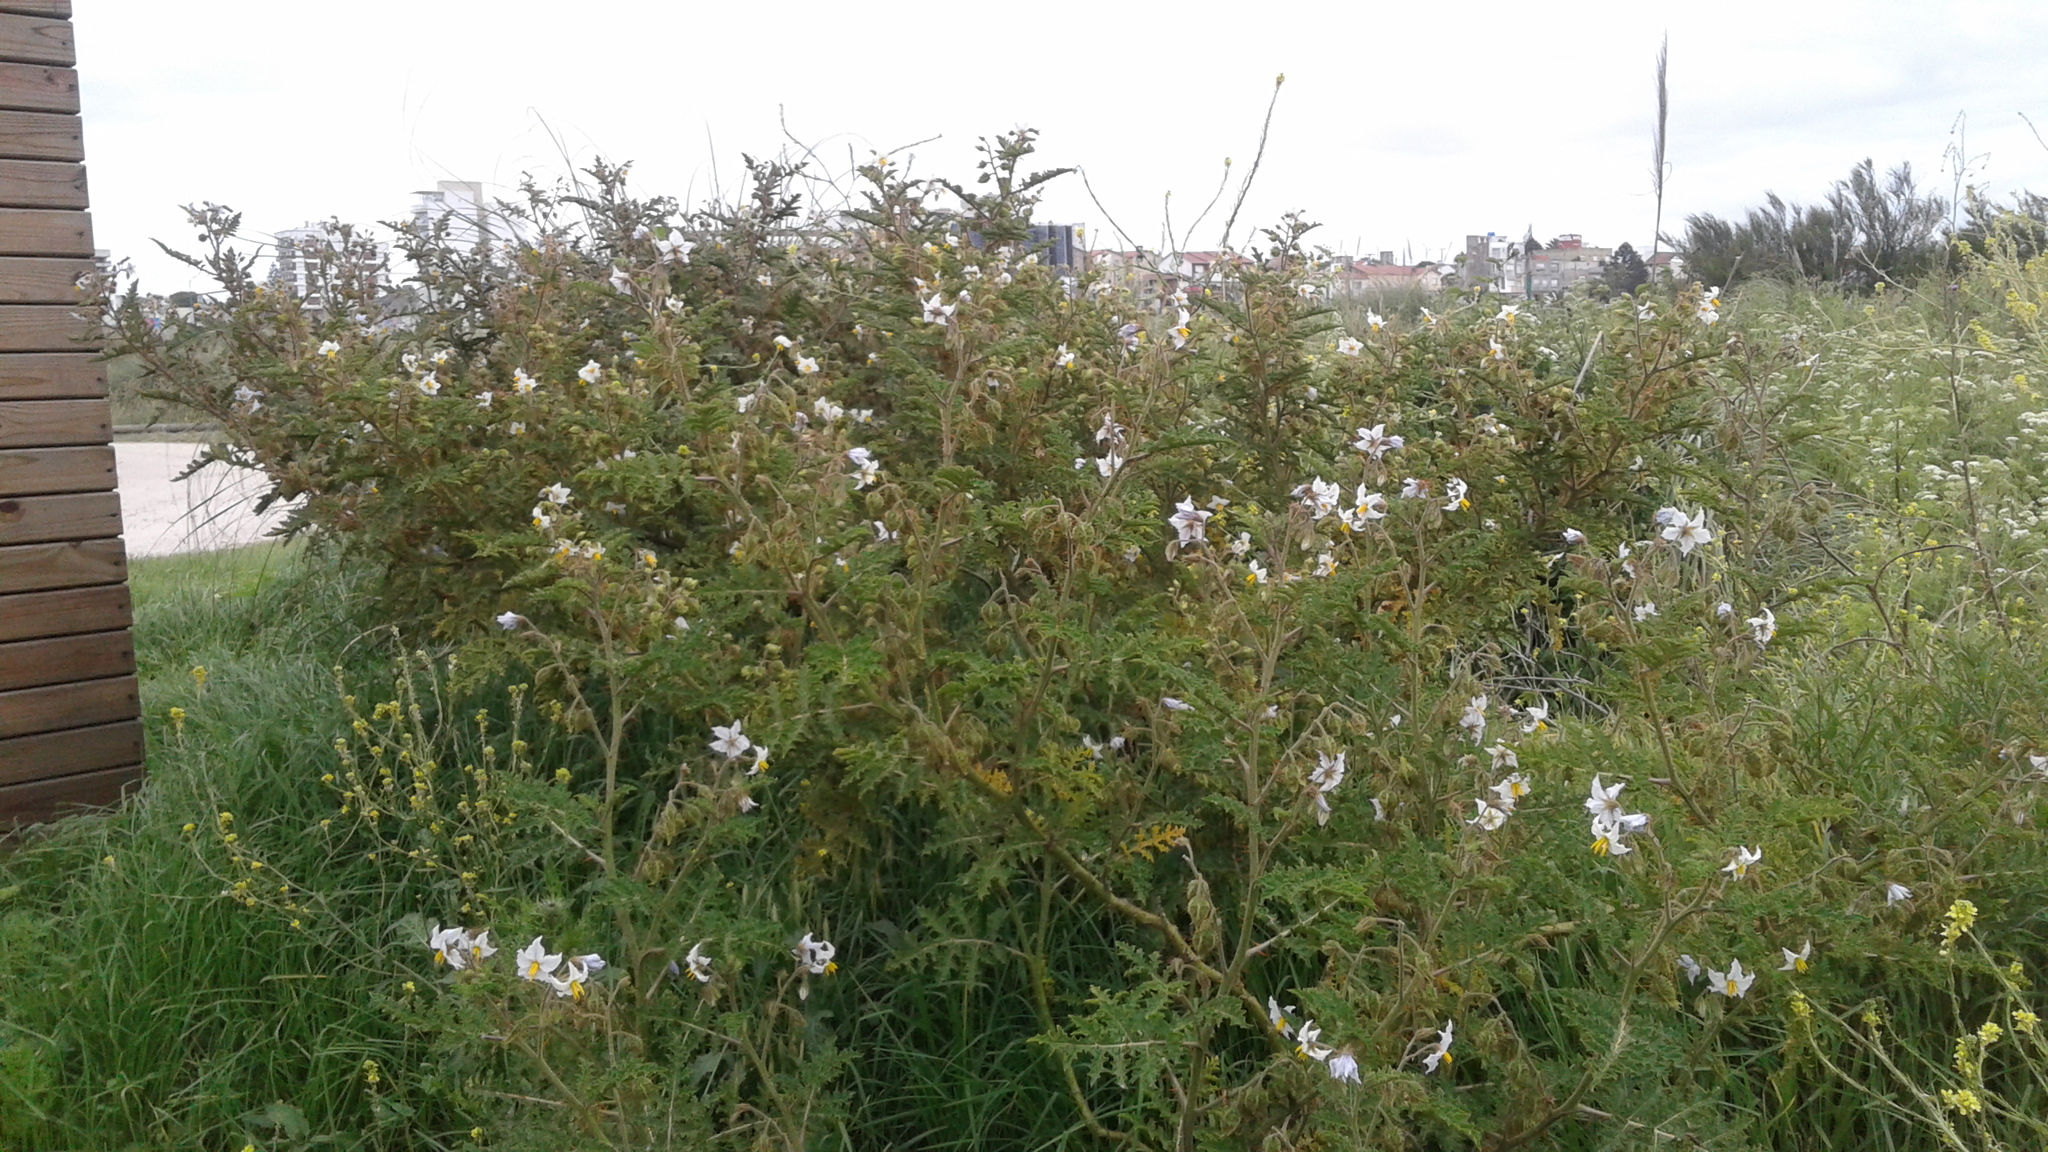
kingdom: Plantae
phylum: Tracheophyta
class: Magnoliopsida
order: Solanales
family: Solanaceae
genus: Solanum
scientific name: Solanum sisymbriifolium
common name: Red buffalo-bur
